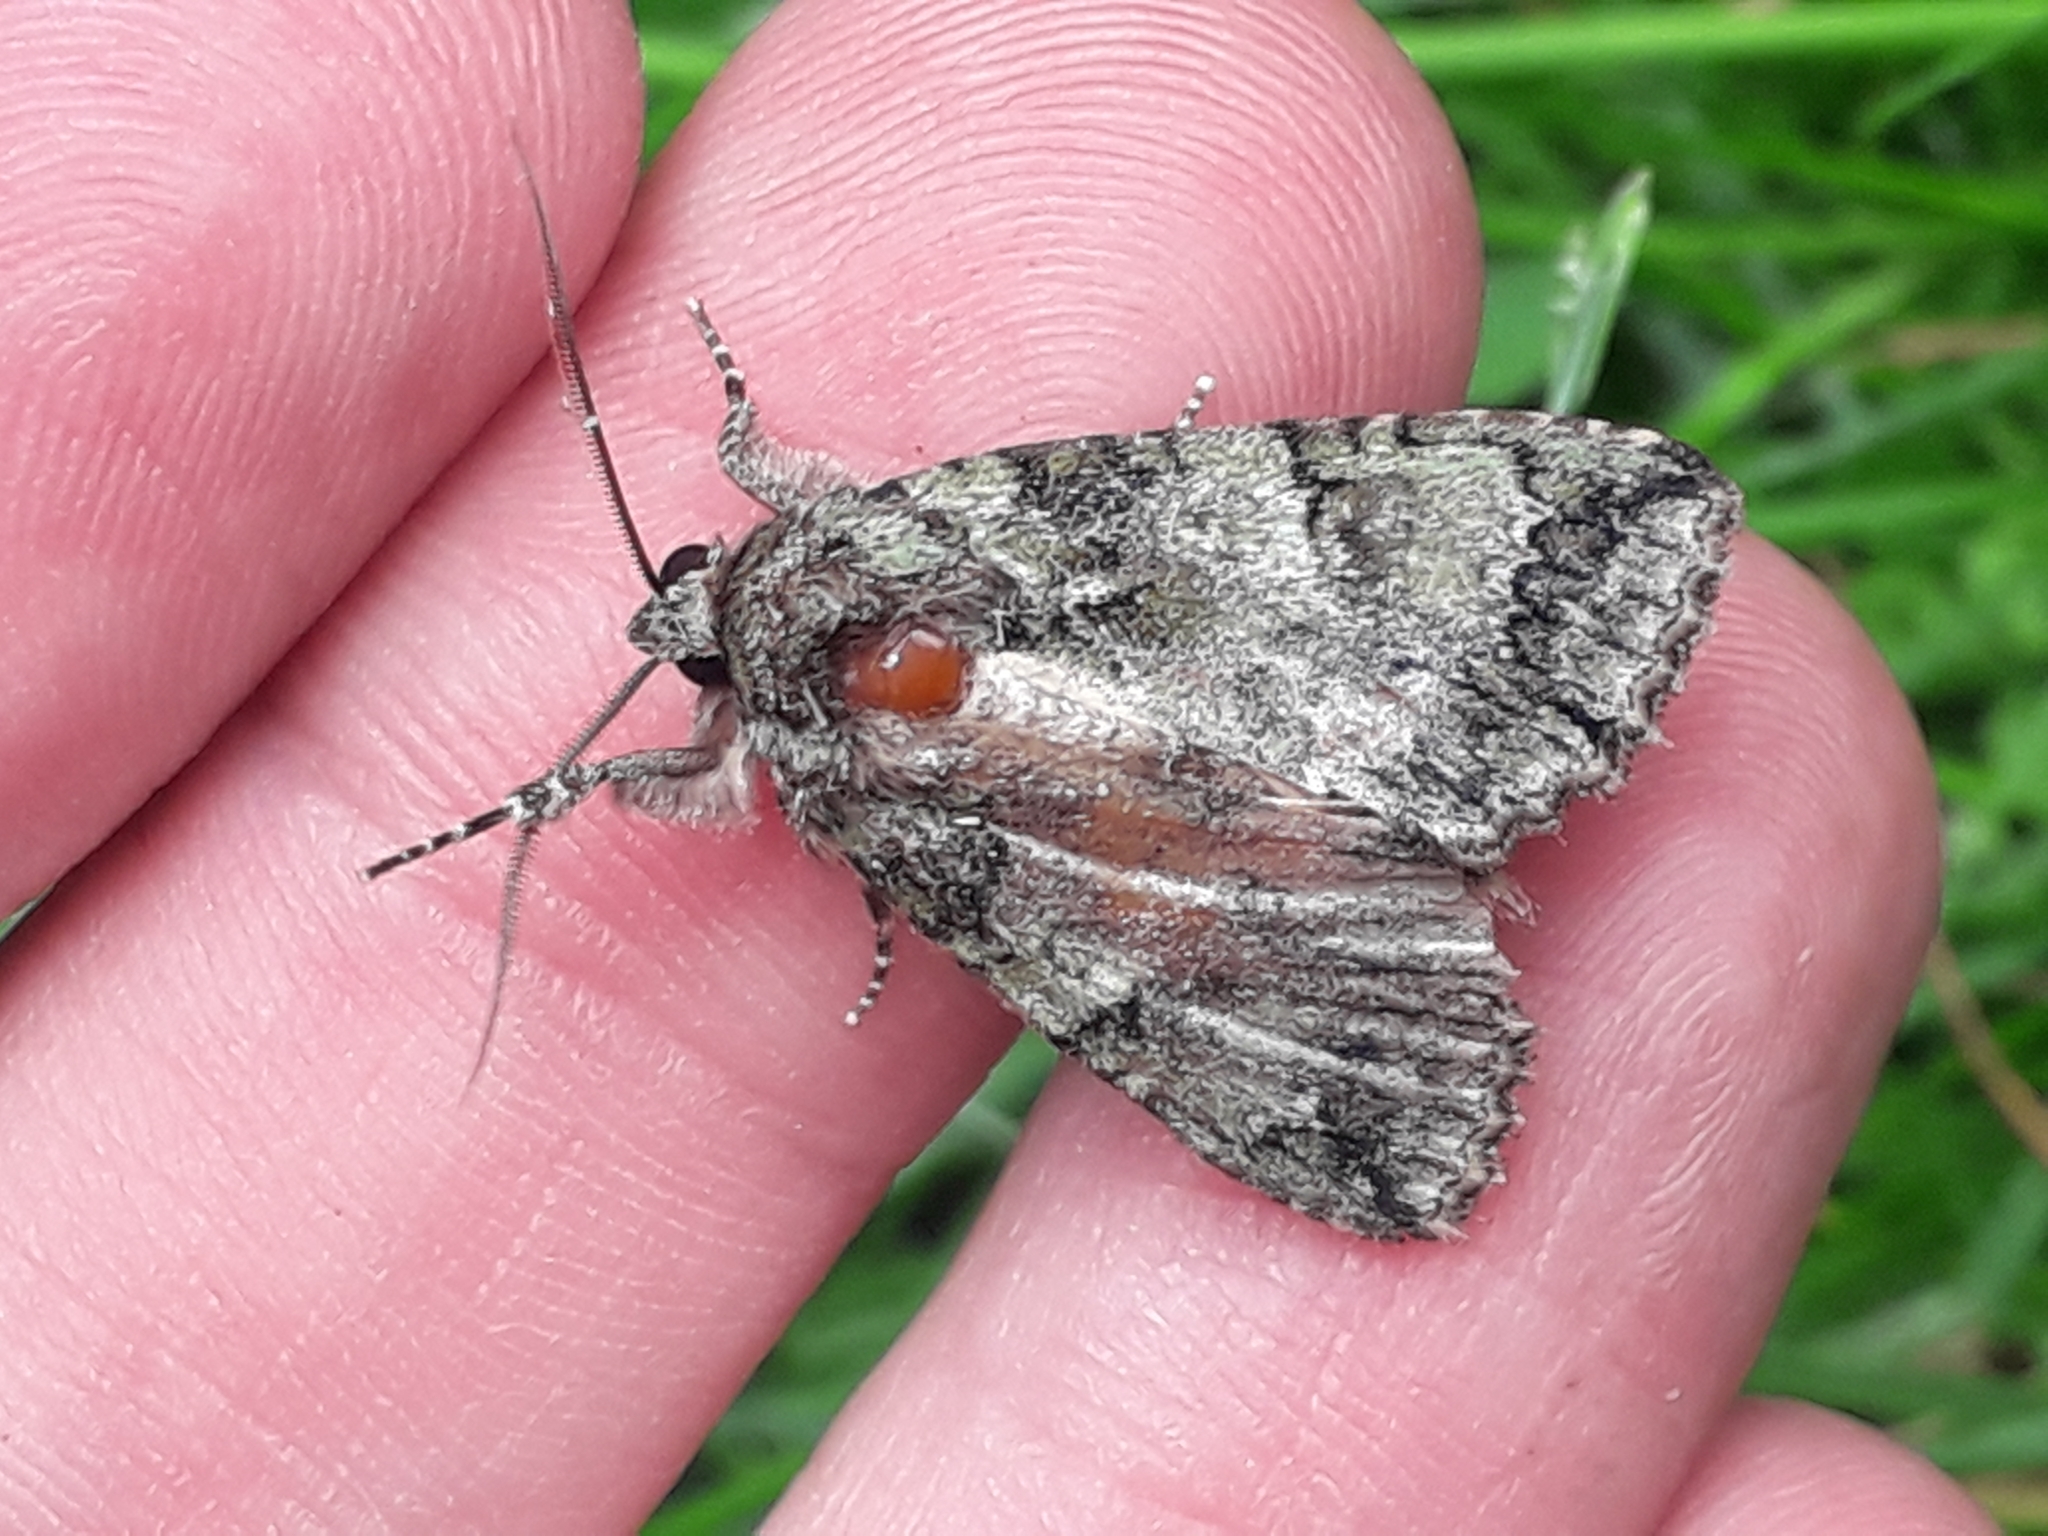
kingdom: Animalia
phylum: Arthropoda
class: Insecta
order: Lepidoptera
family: Noctuidae
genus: Polyphaenis
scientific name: Polyphaenis sericata
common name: Guernsey underwing
